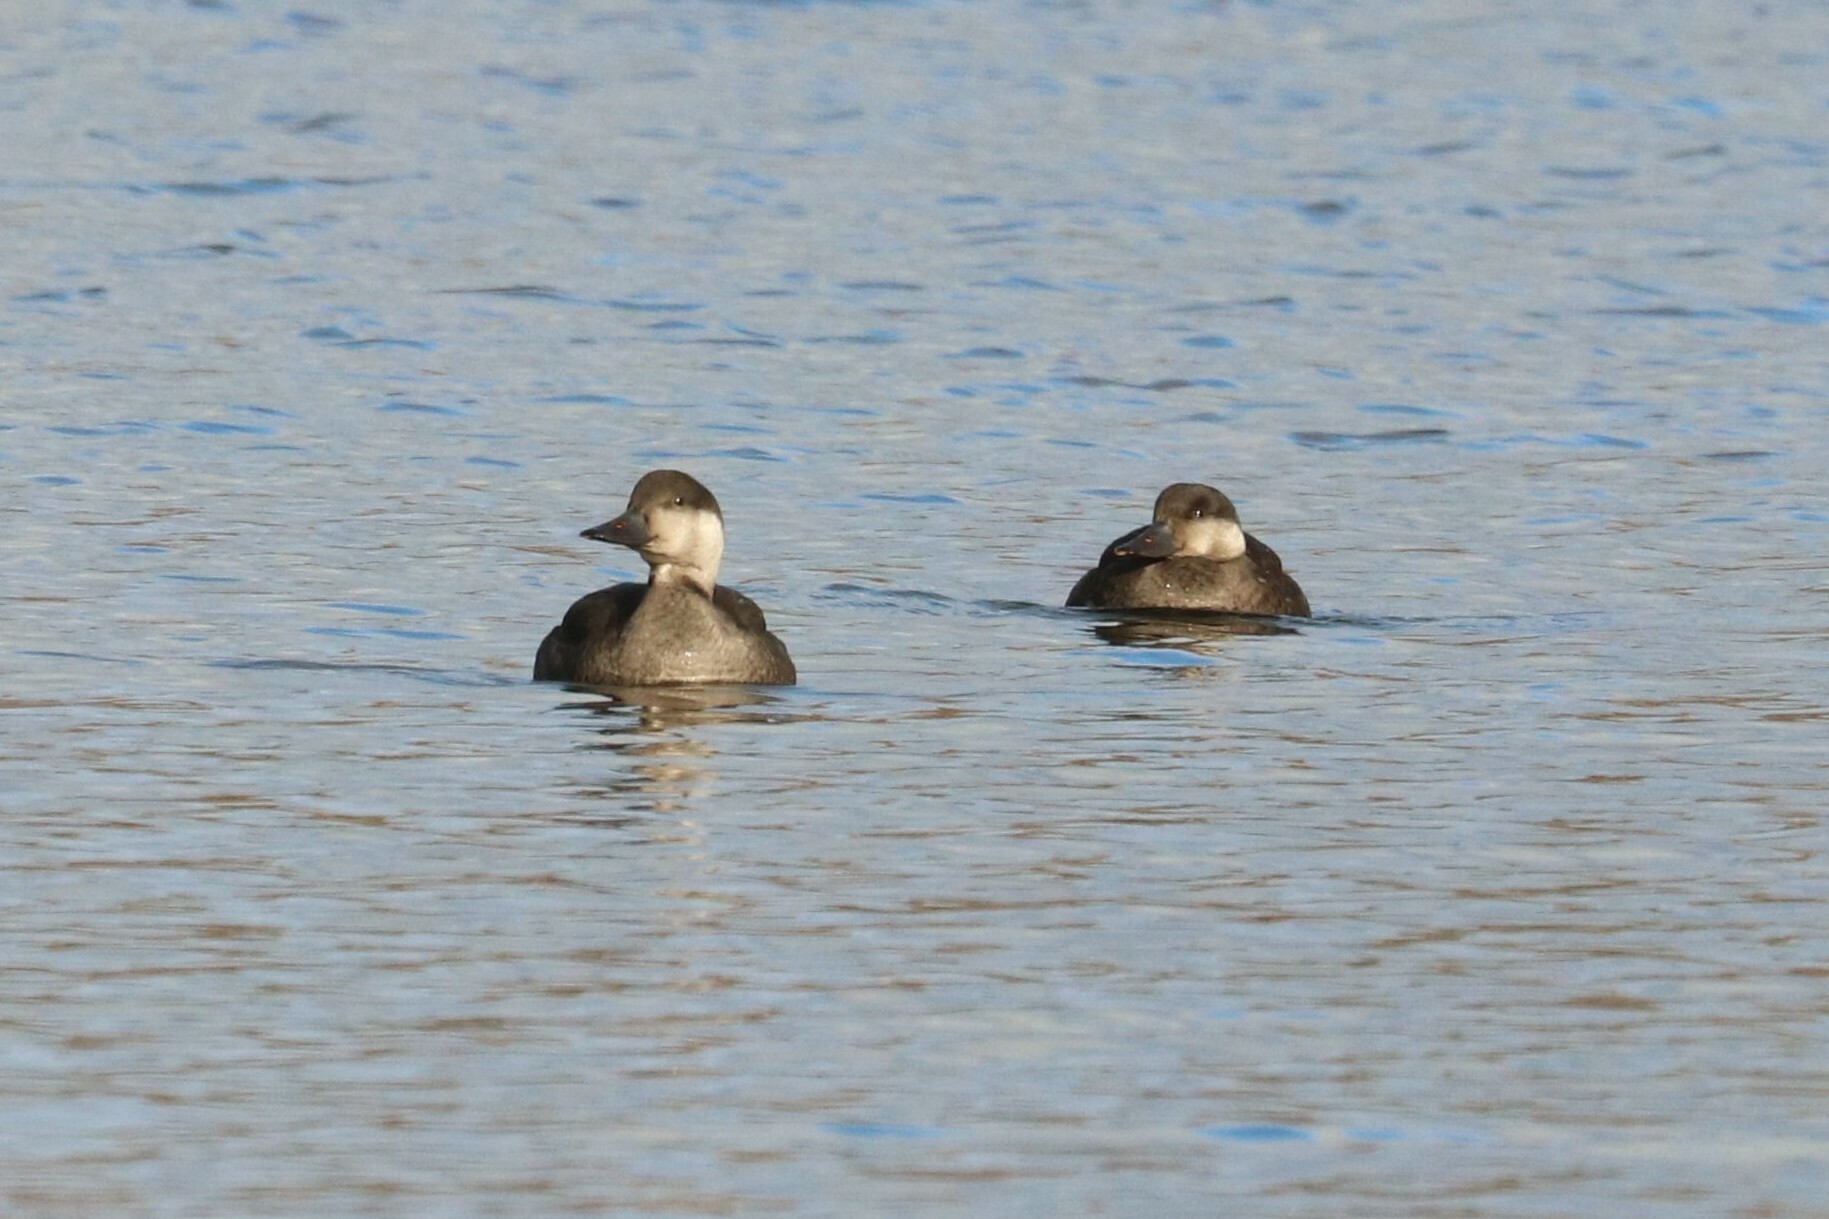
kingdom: Animalia
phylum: Chordata
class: Aves
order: Anseriformes
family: Anatidae
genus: Melanitta
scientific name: Melanitta nigra
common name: Common scoter
